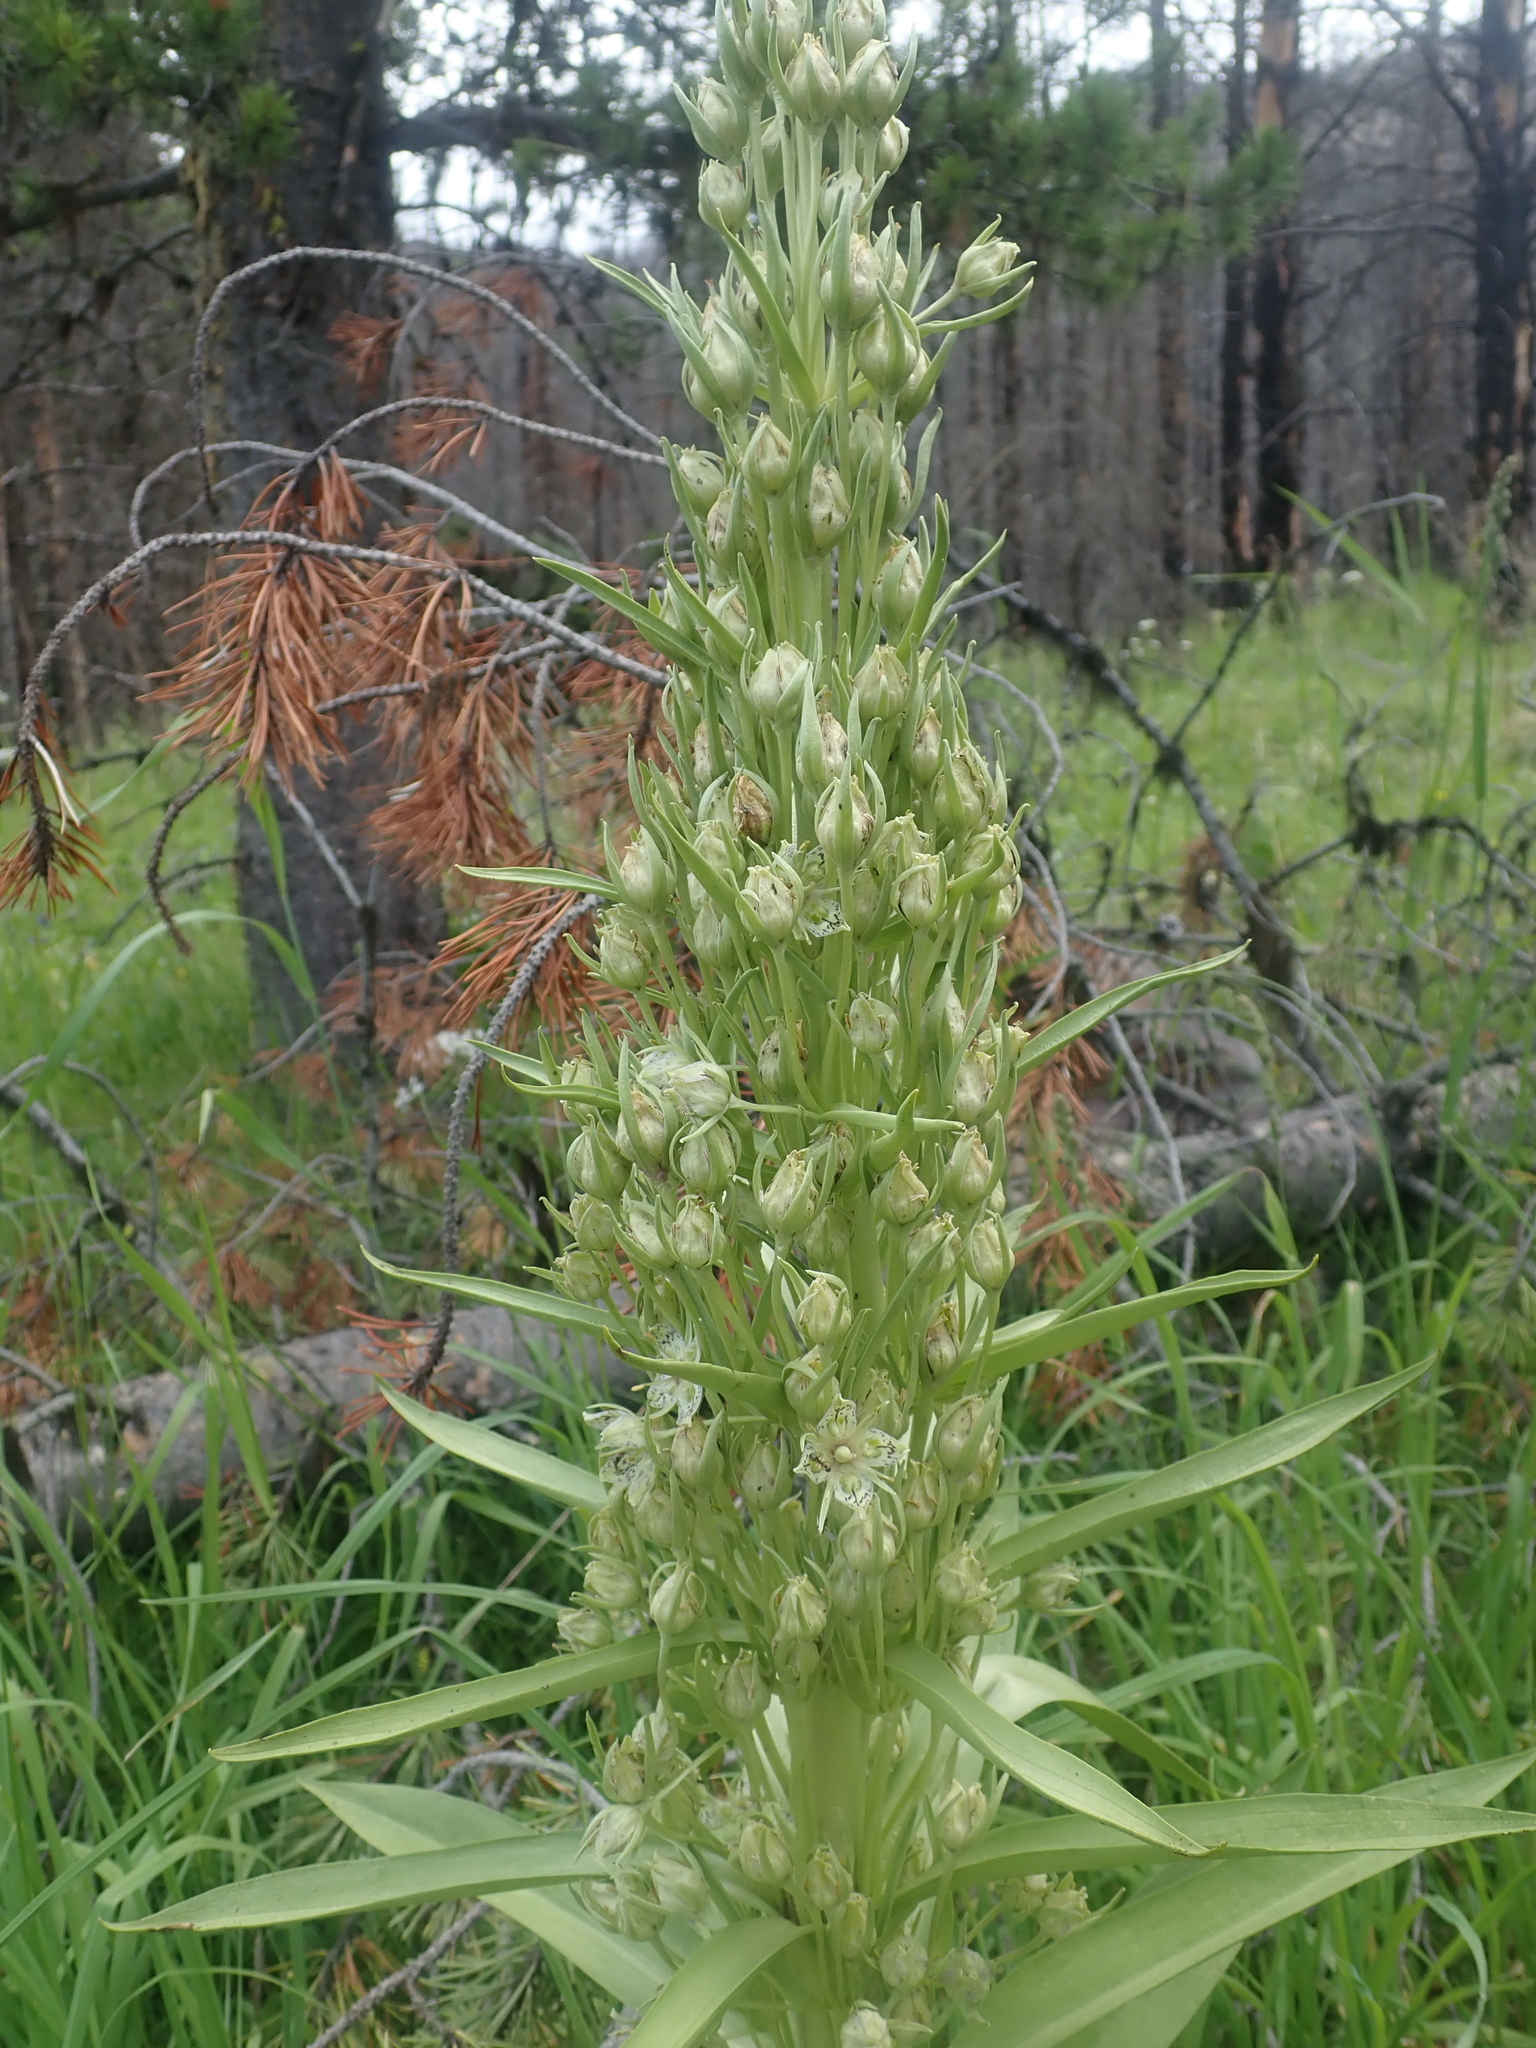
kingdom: Plantae
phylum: Tracheophyta
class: Magnoliopsida
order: Gentianales
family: Gentianaceae
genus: Frasera
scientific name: Frasera speciosa
